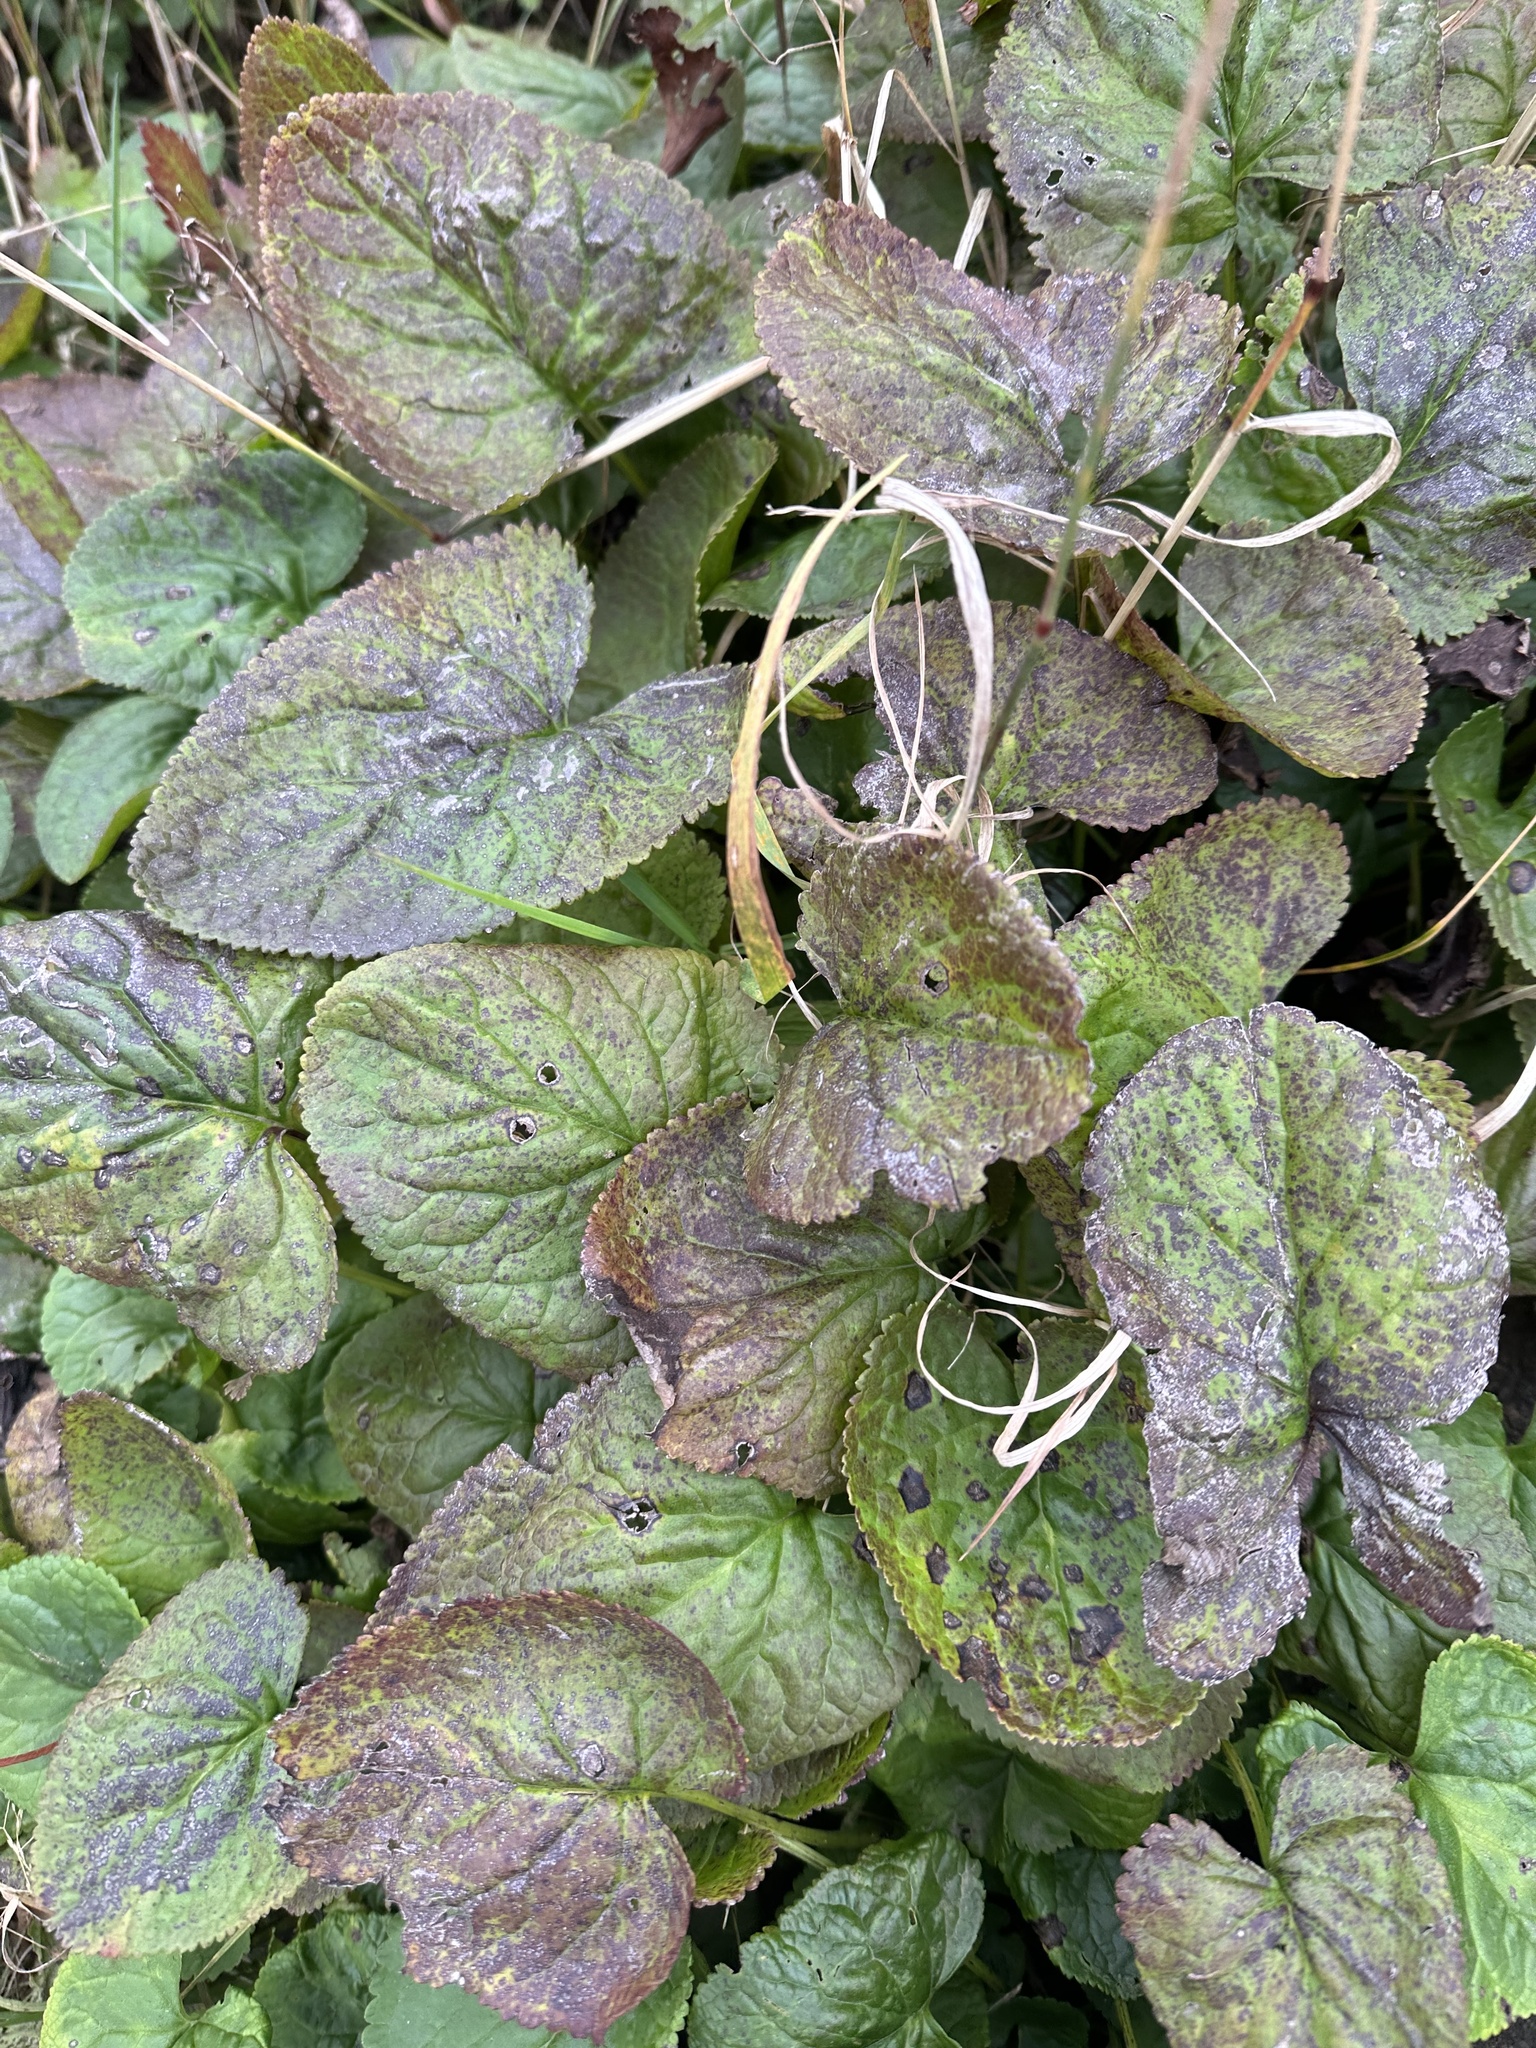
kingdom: Plantae
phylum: Tracheophyta
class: Magnoliopsida
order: Asterales
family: Asteraceae
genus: Packera
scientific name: Packera aurea
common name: Golden groundsel
